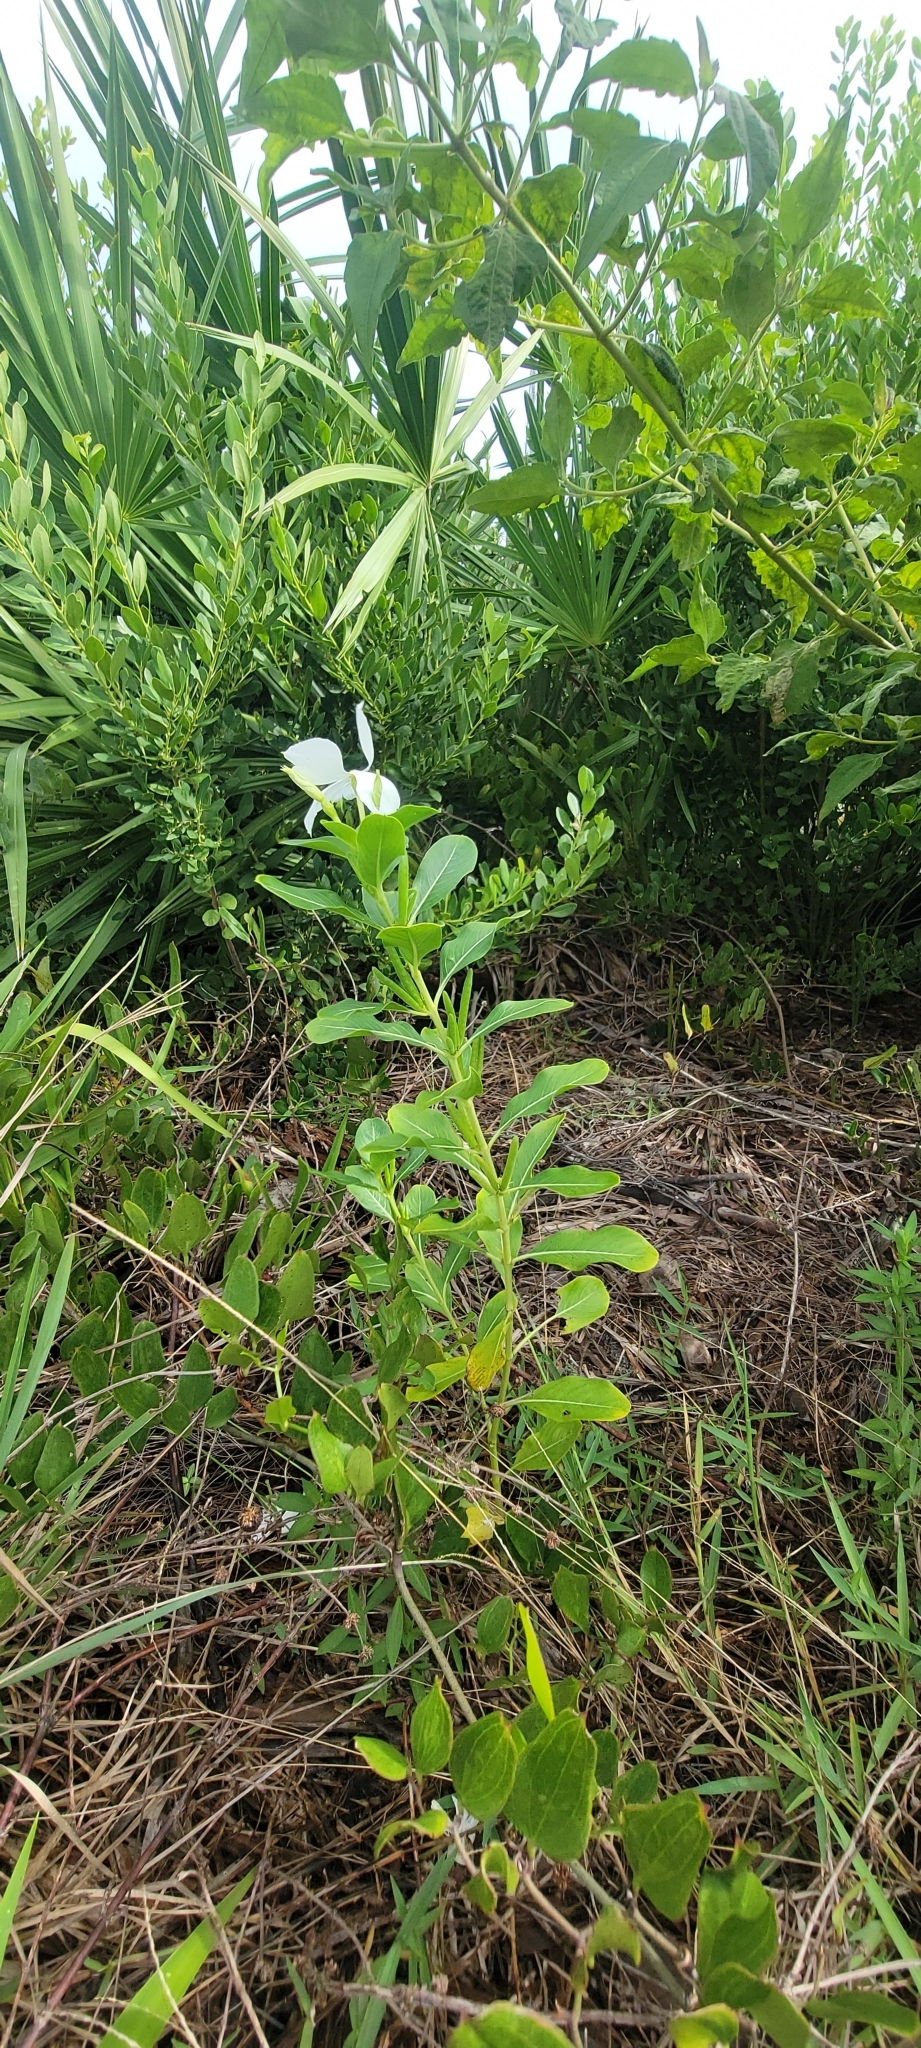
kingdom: Plantae
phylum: Tracheophyta
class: Magnoliopsida
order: Gentianales
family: Apocynaceae
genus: Catharanthus
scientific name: Catharanthus roseus
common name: Madagascar periwinkle
